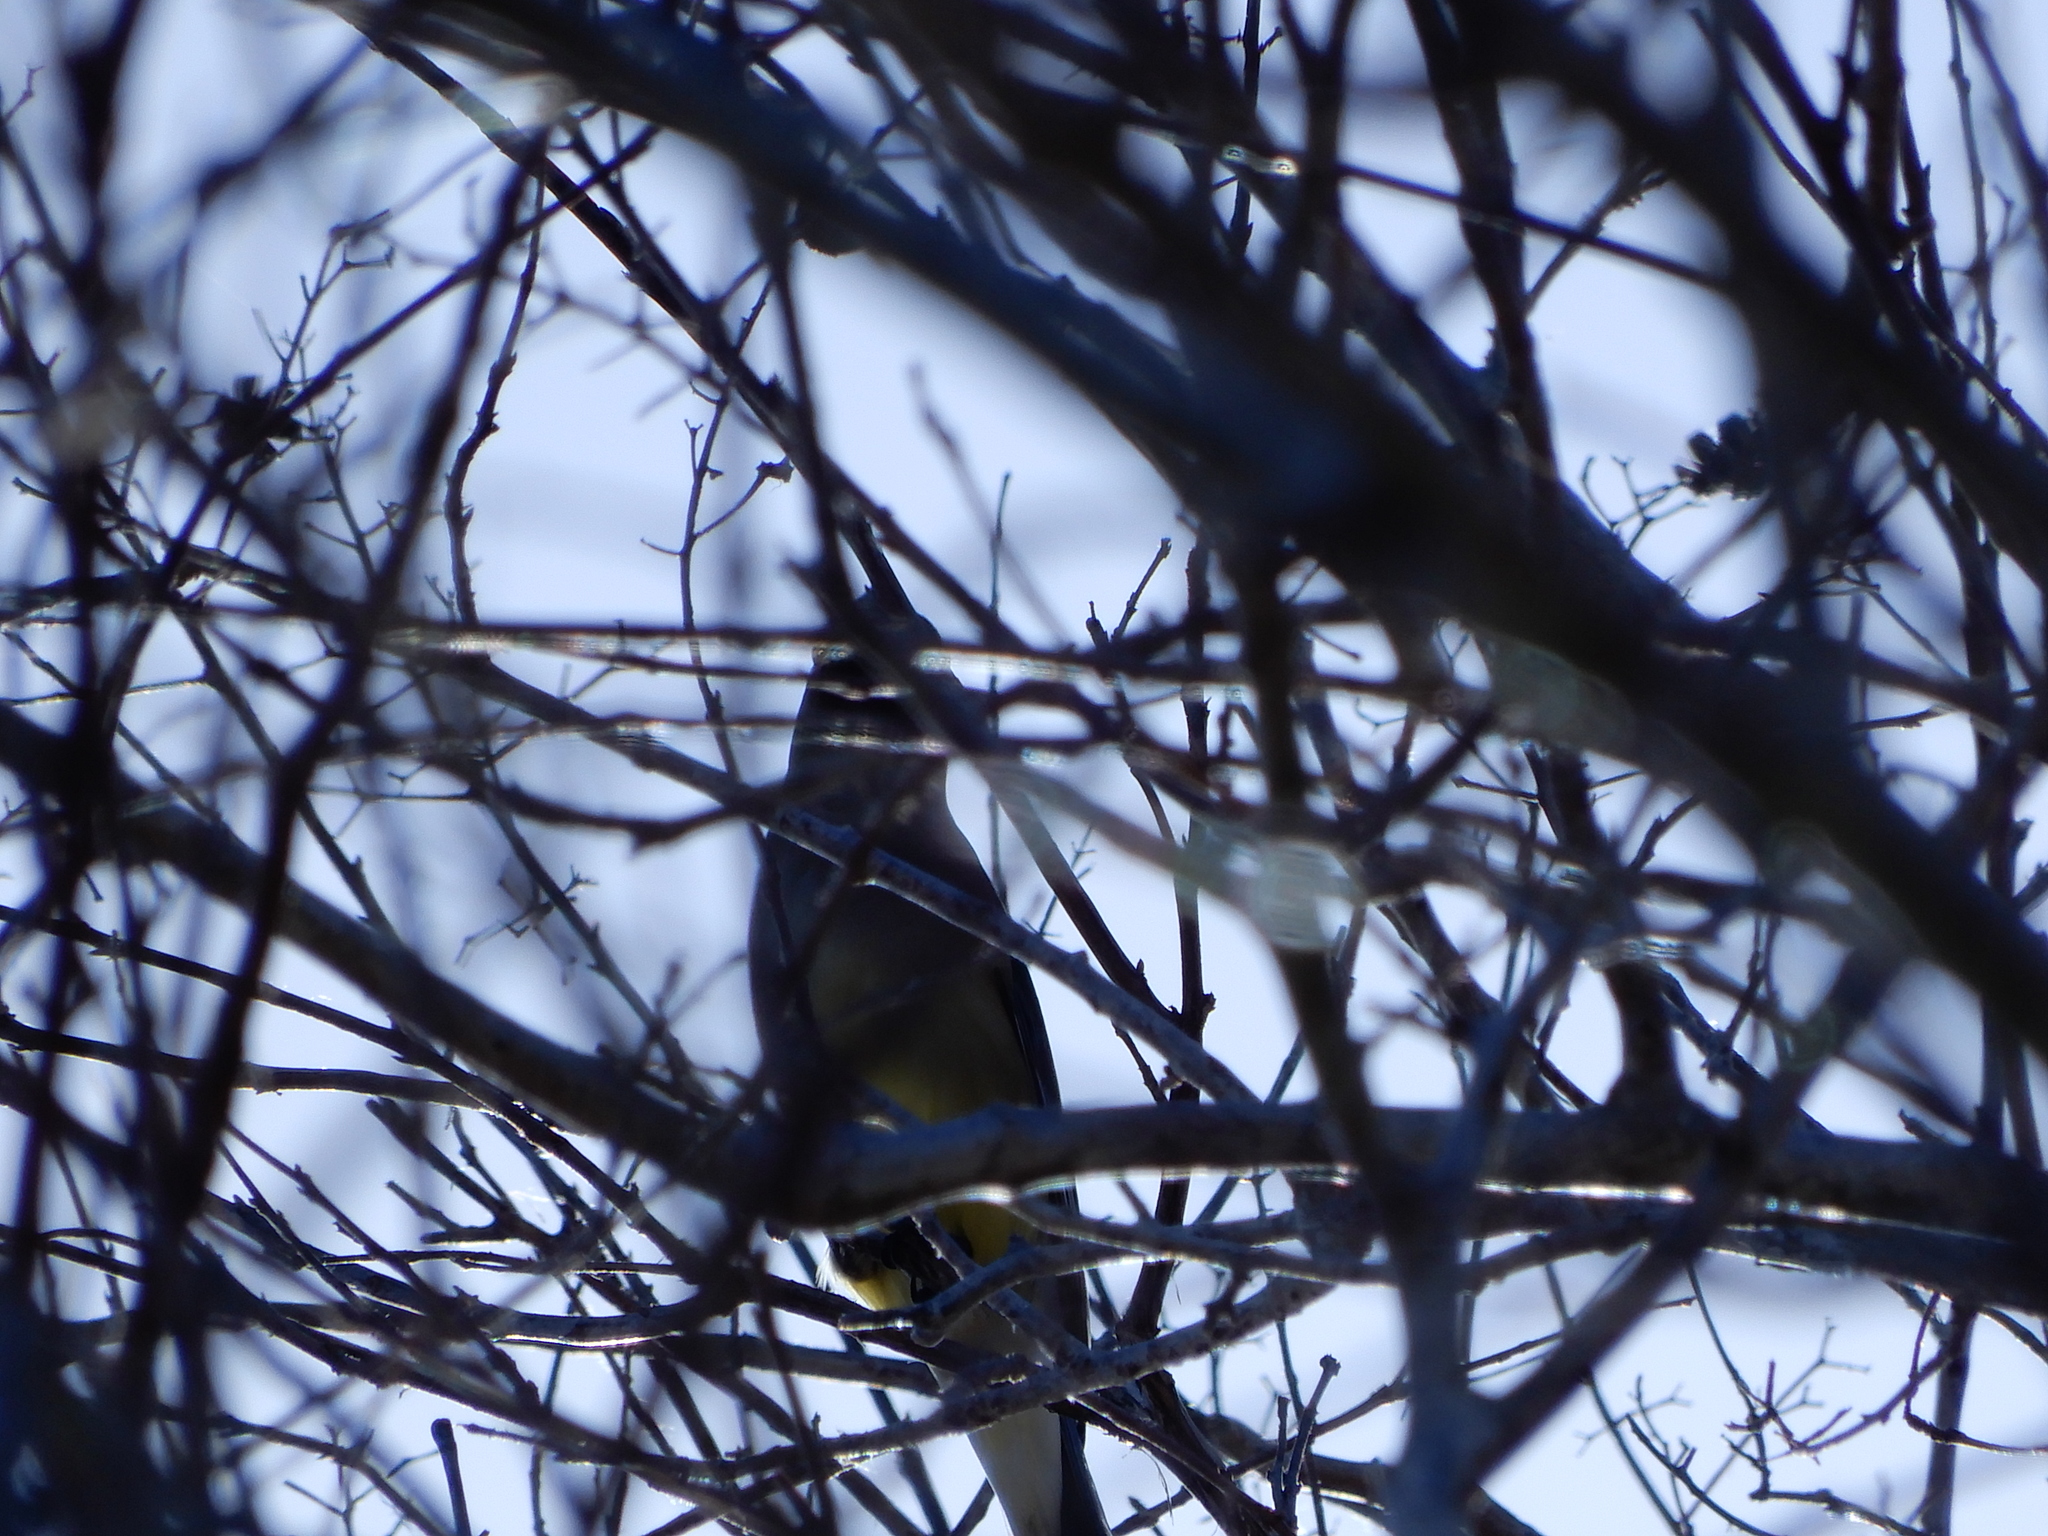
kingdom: Animalia
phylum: Chordata
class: Aves
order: Passeriformes
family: Bombycillidae
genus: Bombycilla
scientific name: Bombycilla cedrorum
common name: Cedar waxwing
